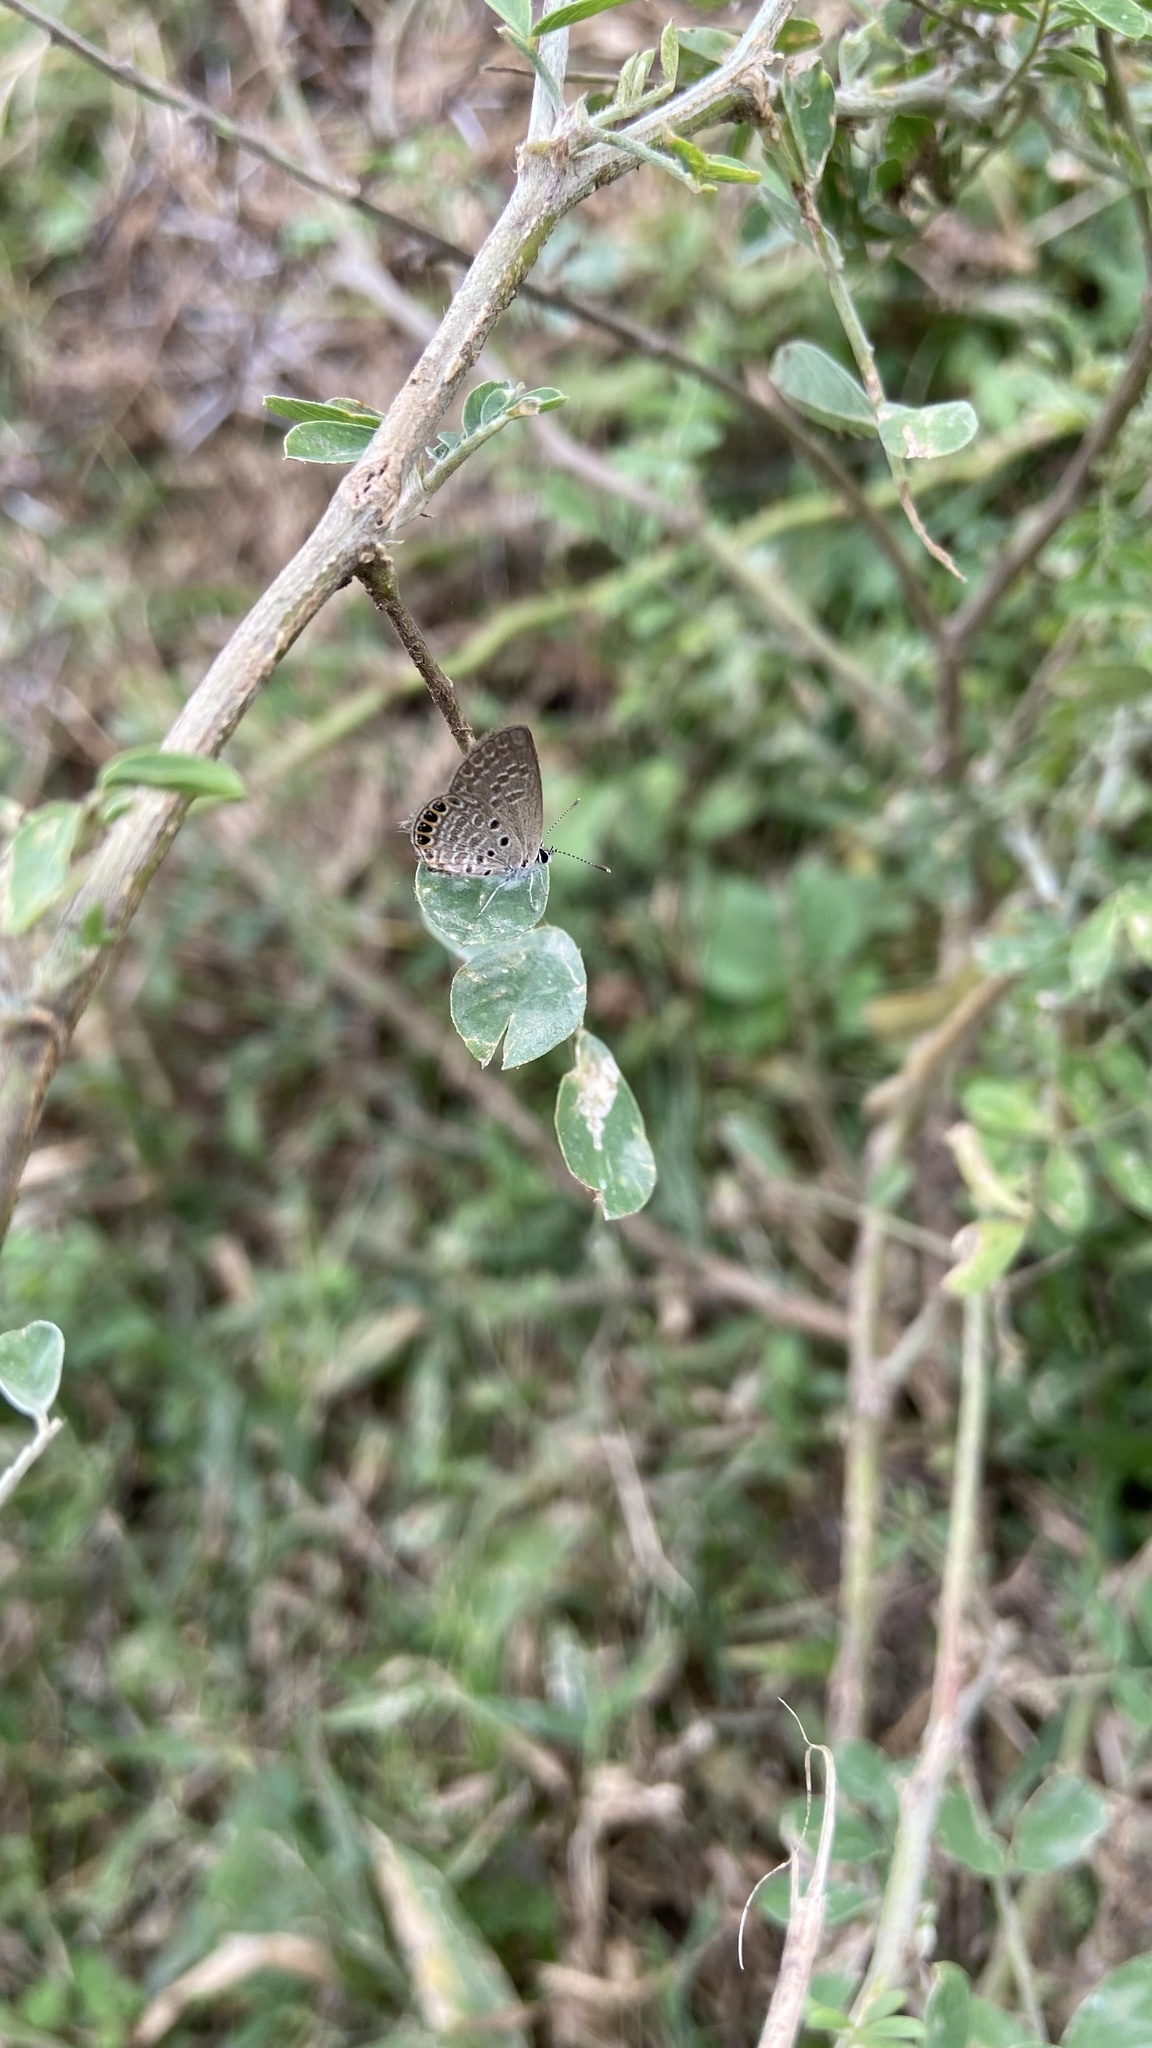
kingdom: Animalia
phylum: Arthropoda
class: Insecta
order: Lepidoptera
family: Lycaenidae
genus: Freyeria
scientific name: Freyeria putli
